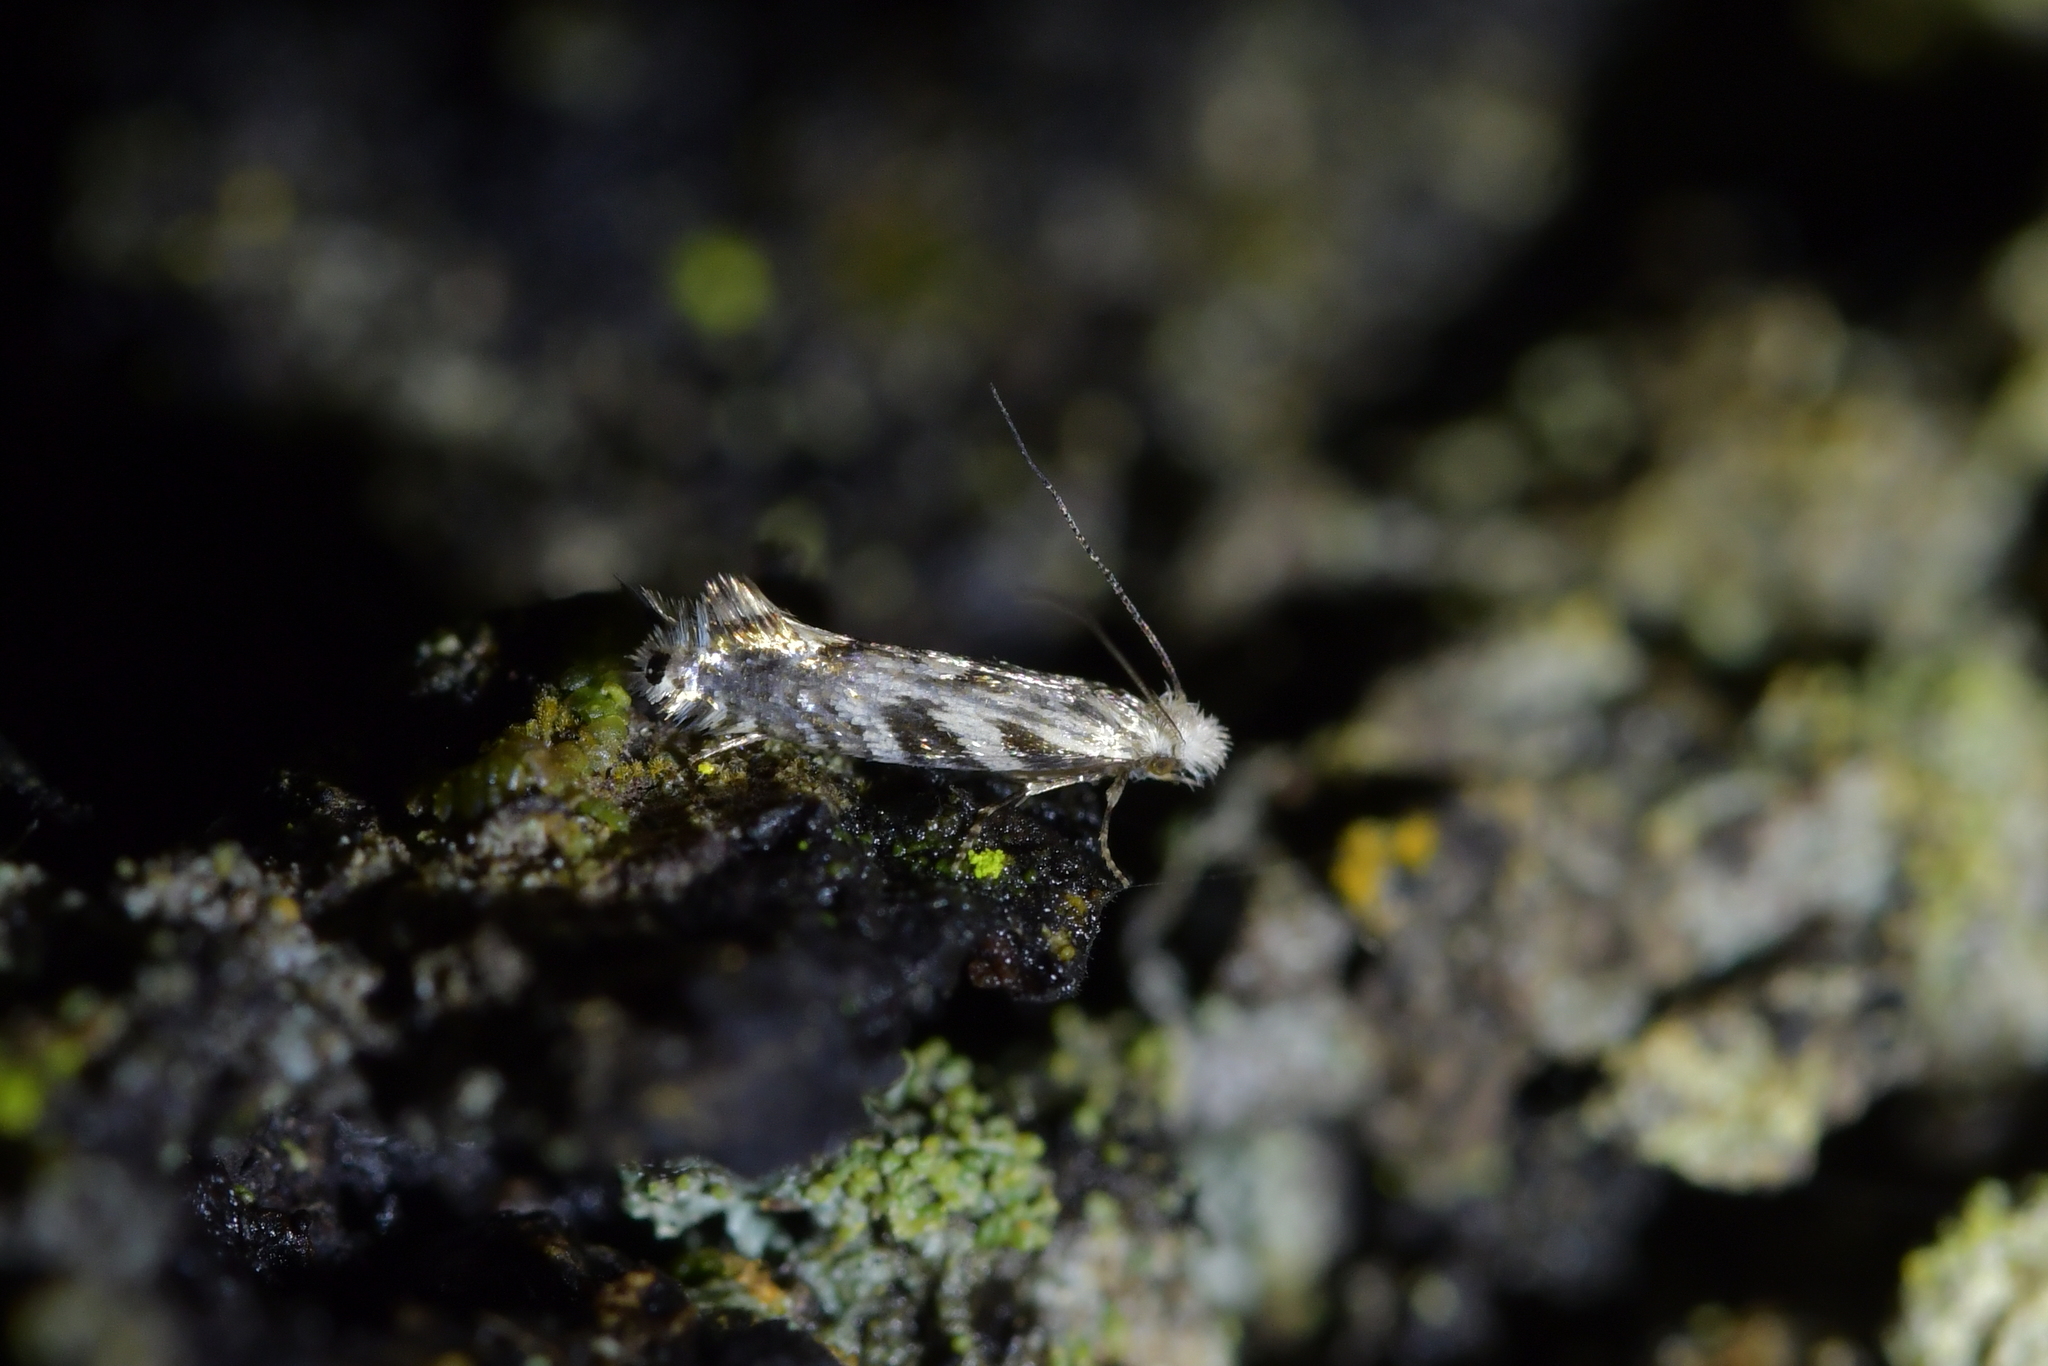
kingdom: Animalia
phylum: Arthropoda
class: Insecta
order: Lepidoptera
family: Tineidae
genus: Tinea
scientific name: Tinea accusatrix
